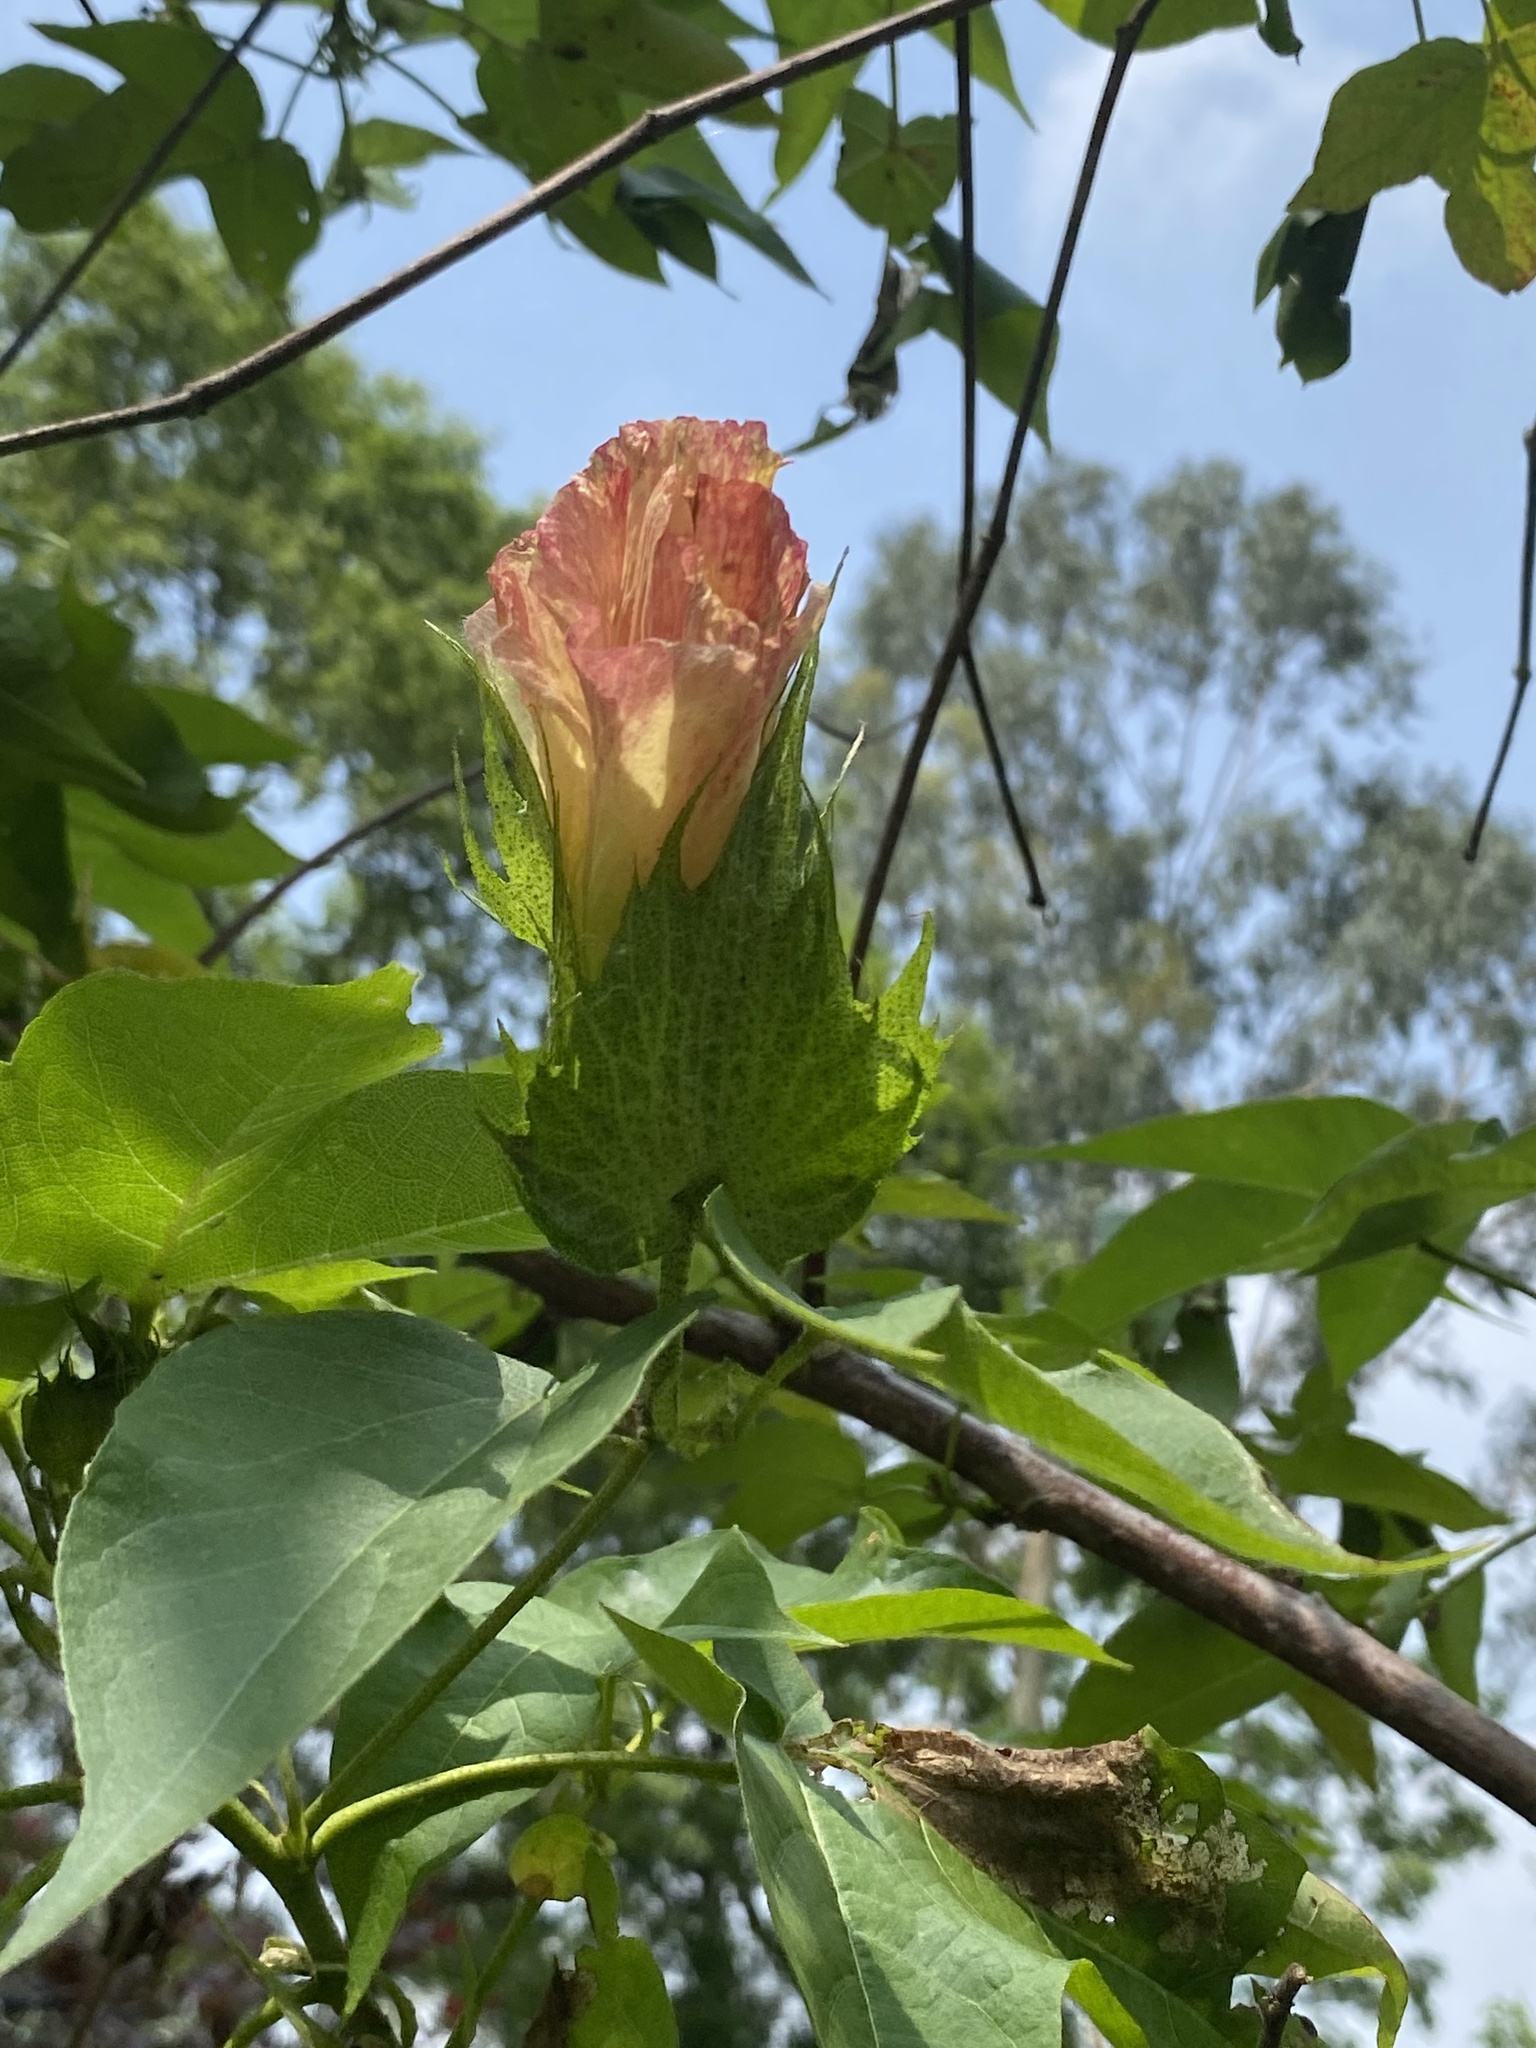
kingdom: Plantae
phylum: Tracheophyta
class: Magnoliopsida
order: Malvales
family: Malvaceae
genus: Gossypium
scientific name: Gossypium herbaceum
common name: Levant cotton
